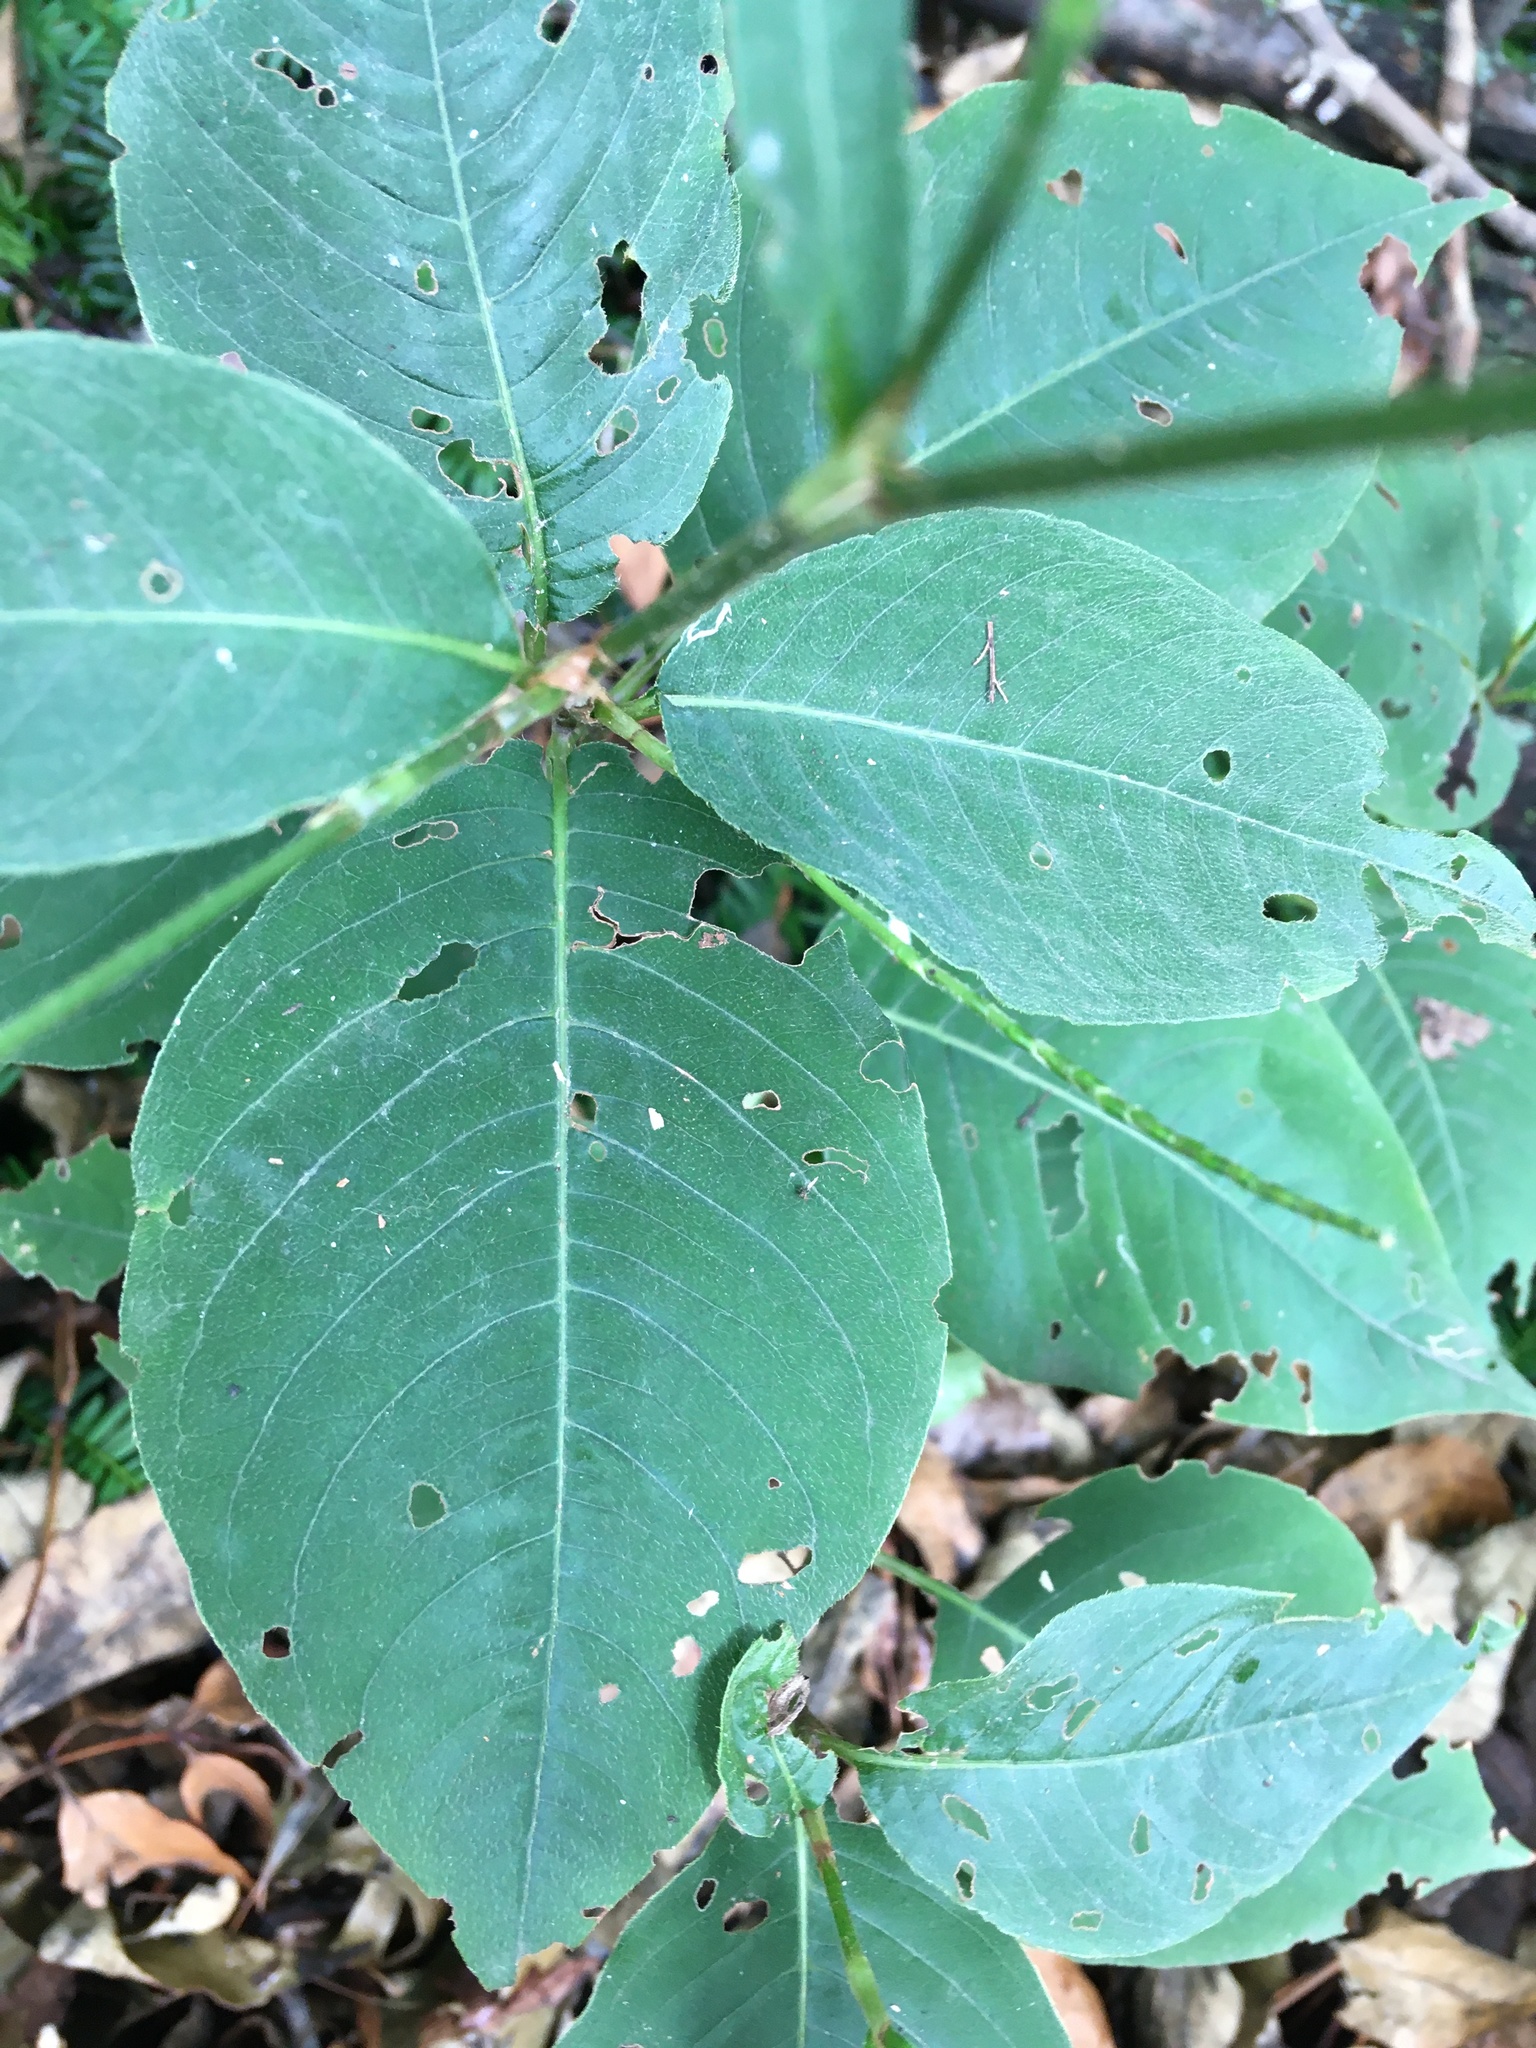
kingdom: Plantae
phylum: Tracheophyta
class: Magnoliopsida
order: Caryophyllales
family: Polygonaceae
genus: Persicaria
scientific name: Persicaria virginiana
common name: Jumpseed
